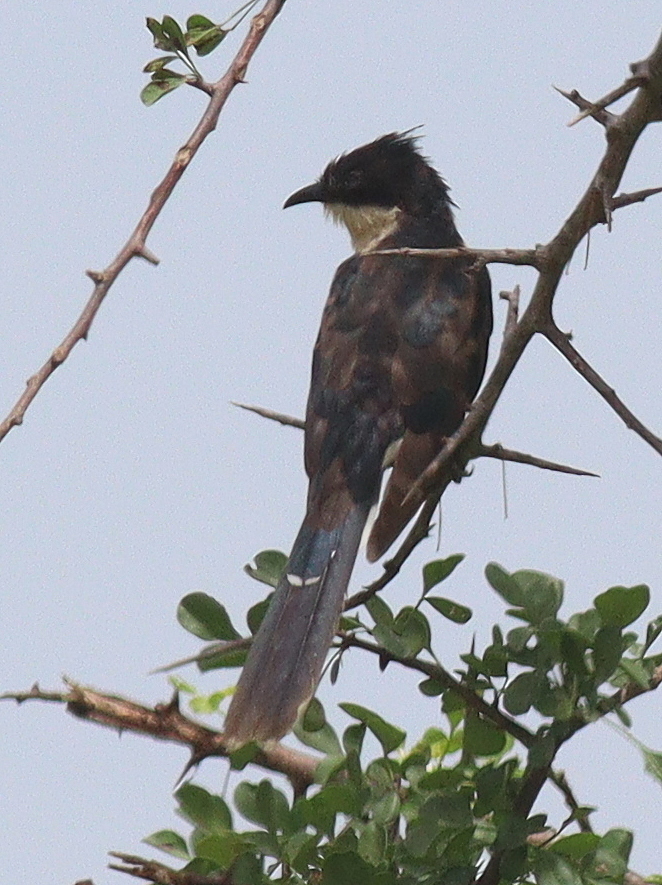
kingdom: Animalia
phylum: Chordata
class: Aves
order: Cuculiformes
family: Cuculidae
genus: Clamator
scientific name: Clamator jacobinus
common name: Jacobin cuckoo
